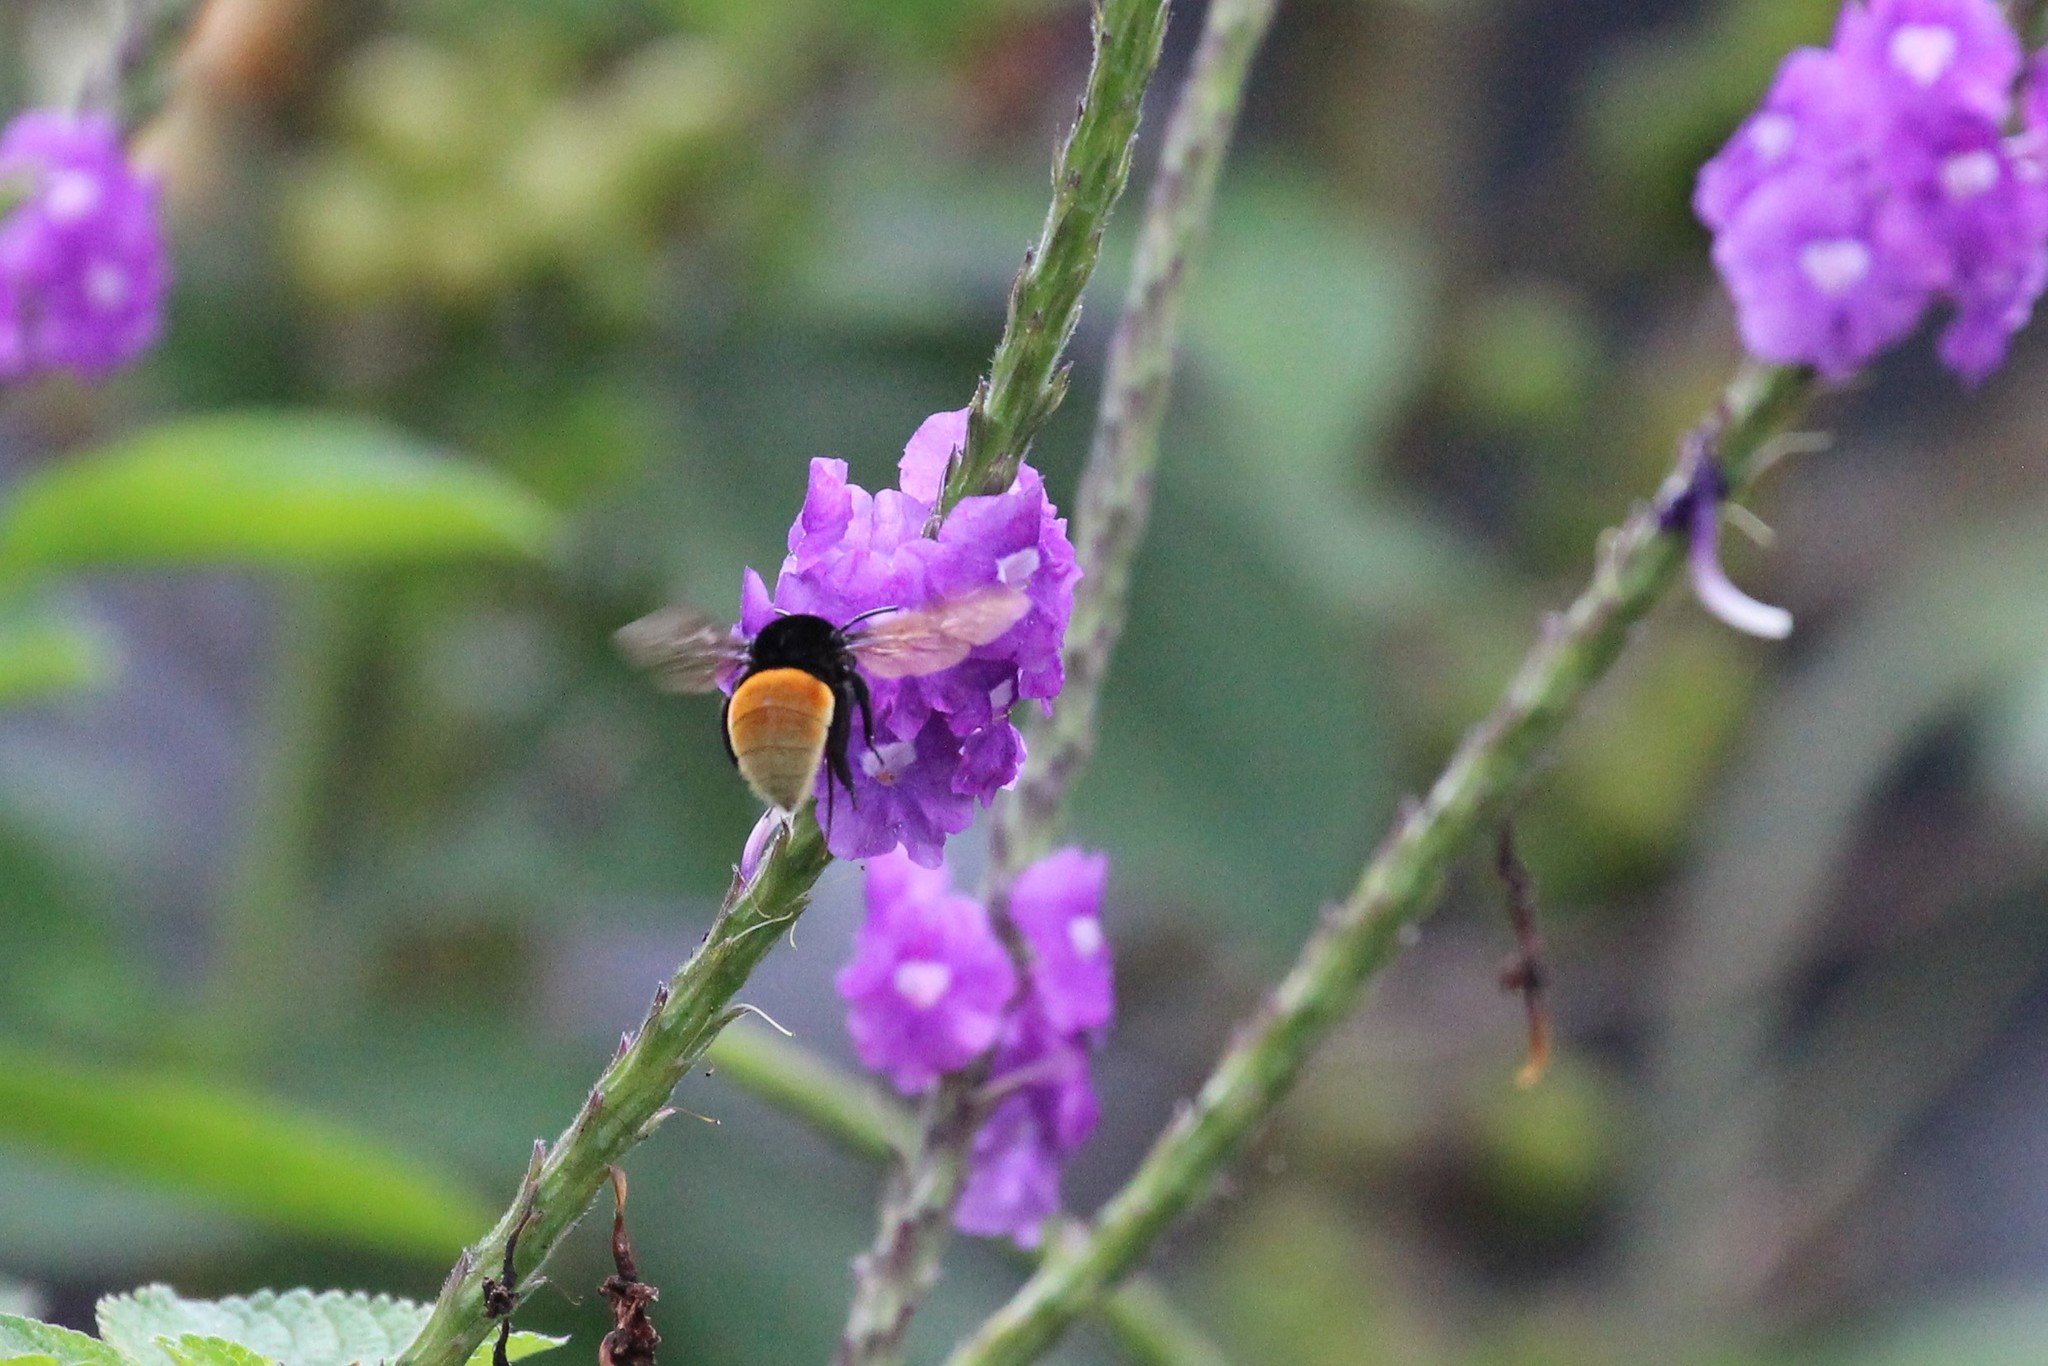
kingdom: Animalia
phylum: Arthropoda
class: Insecta
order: Hymenoptera
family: Apidae
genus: Eulaema
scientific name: Eulaema polychroma
